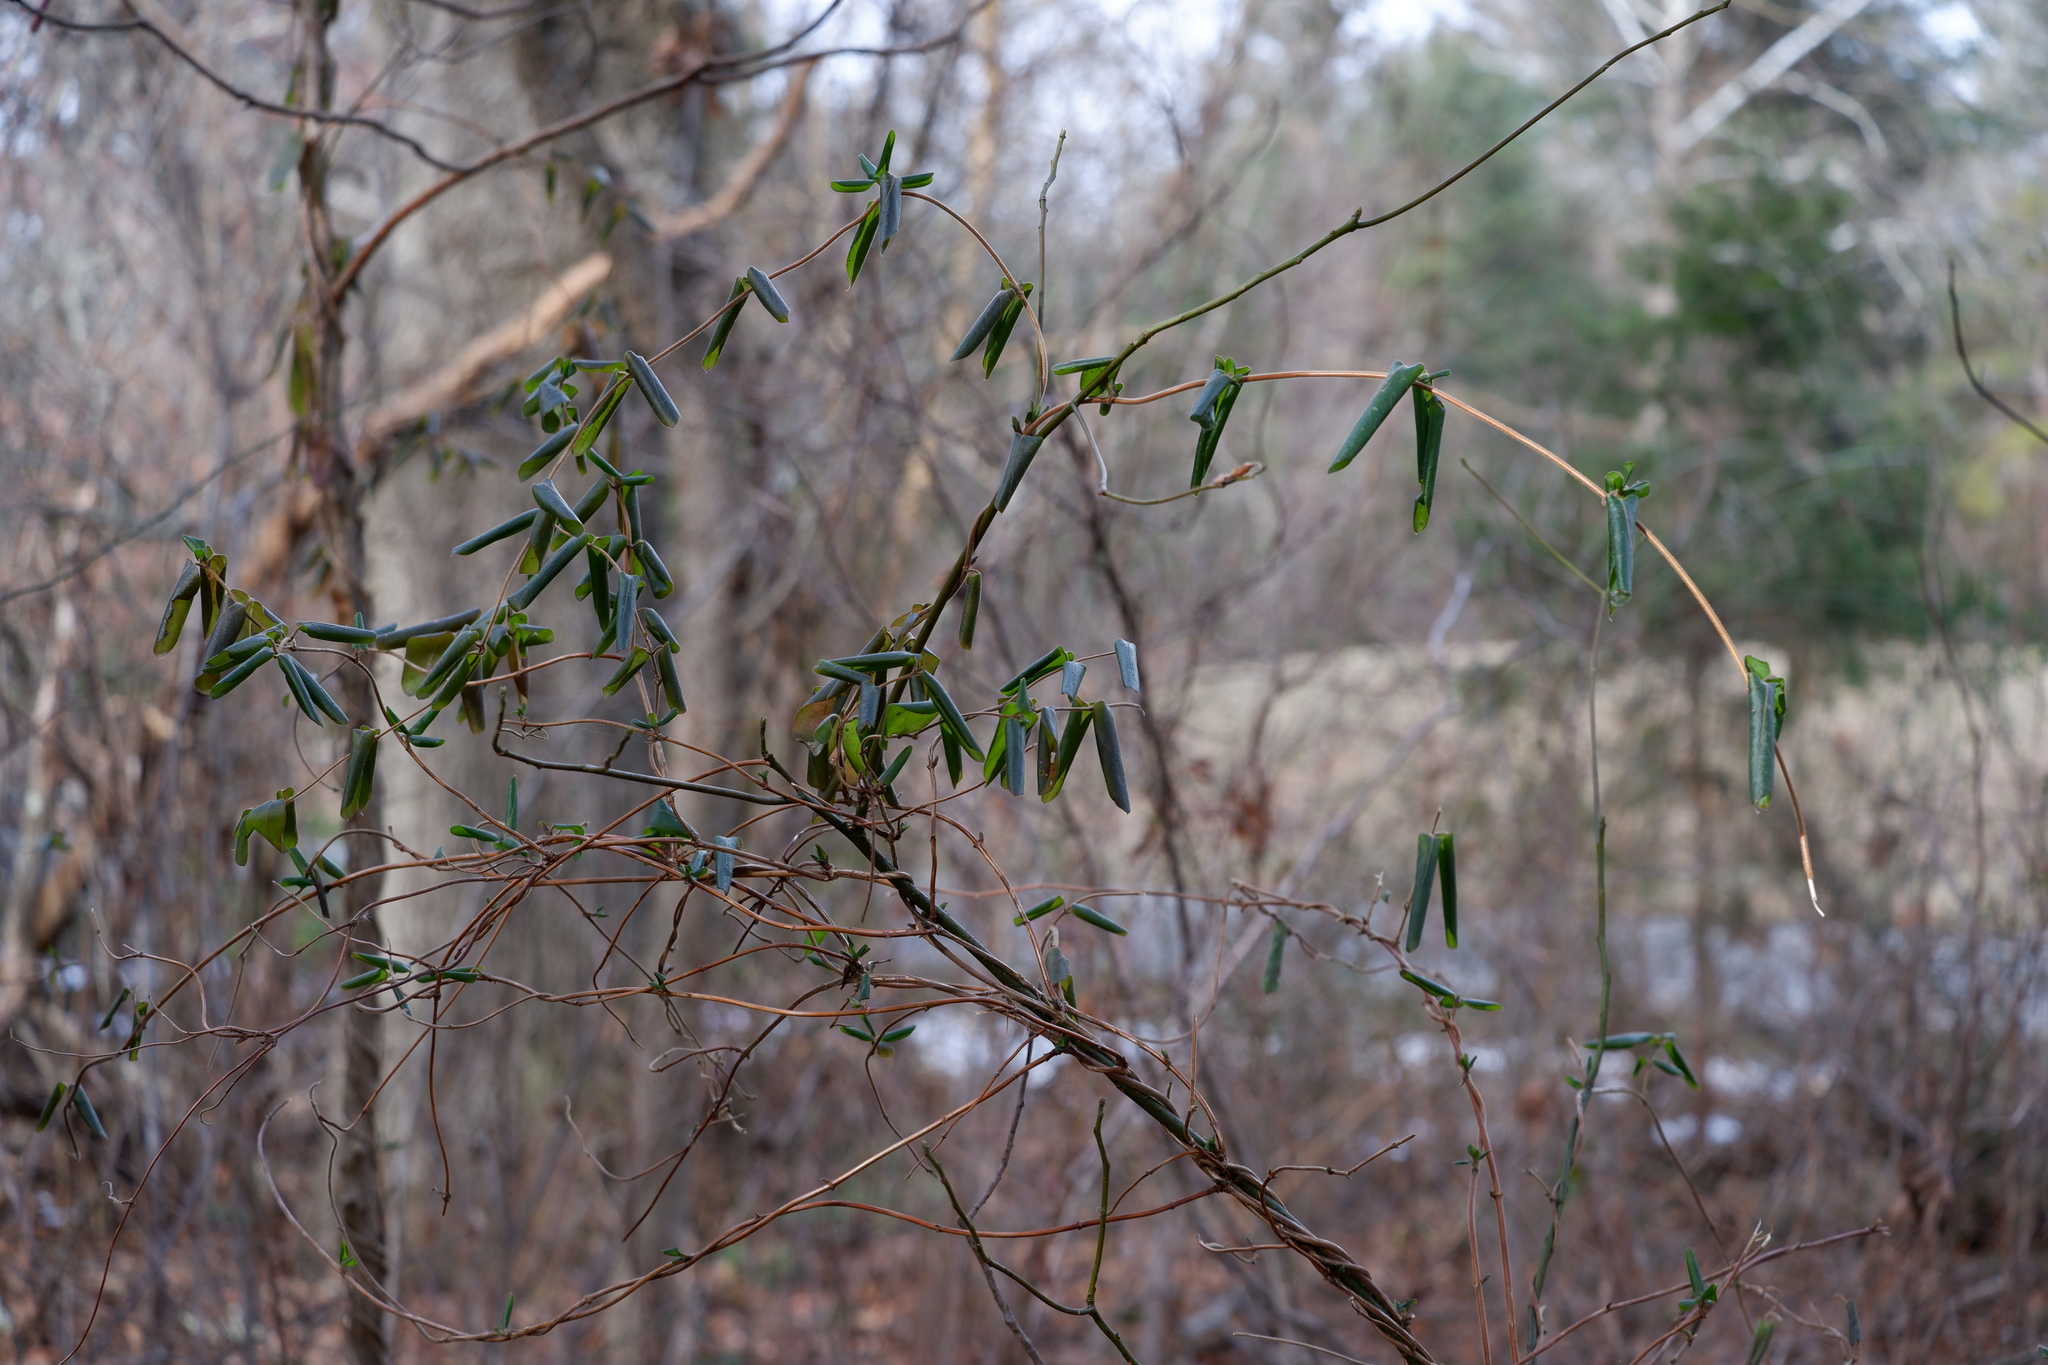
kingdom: Plantae
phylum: Tracheophyta
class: Magnoliopsida
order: Dipsacales
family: Caprifoliaceae
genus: Lonicera
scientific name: Lonicera japonica
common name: Japanese honeysuckle
